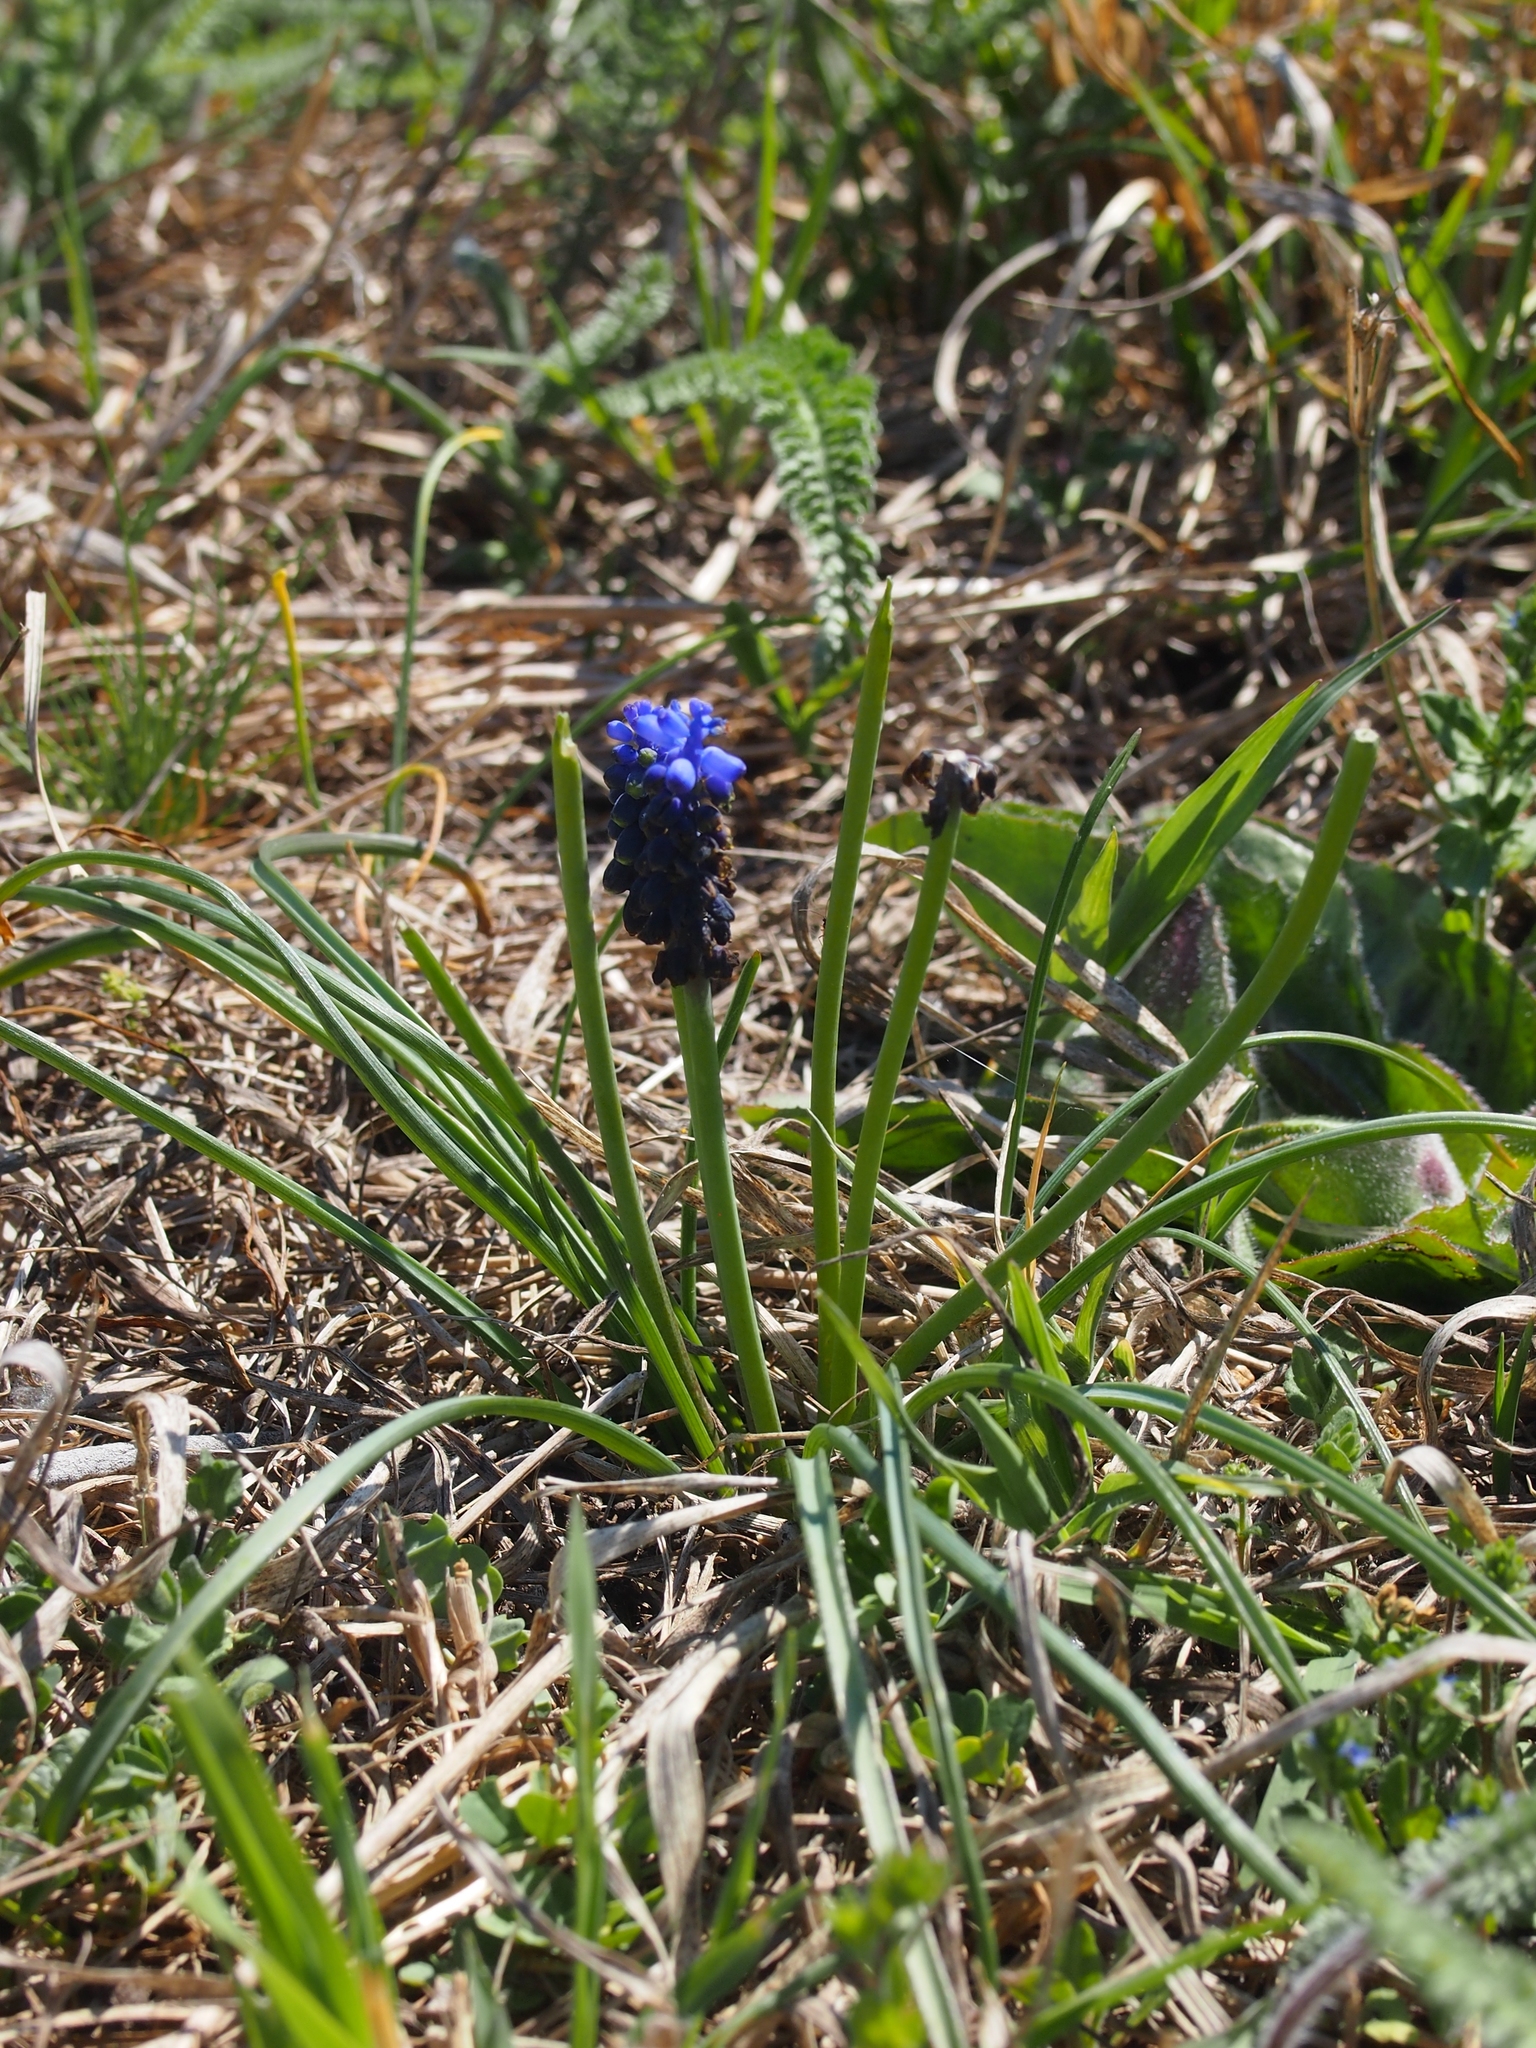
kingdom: Plantae
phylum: Tracheophyta
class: Liliopsida
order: Asparagales
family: Asparagaceae
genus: Muscari
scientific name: Muscari neglectum
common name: Grape-hyacinth
